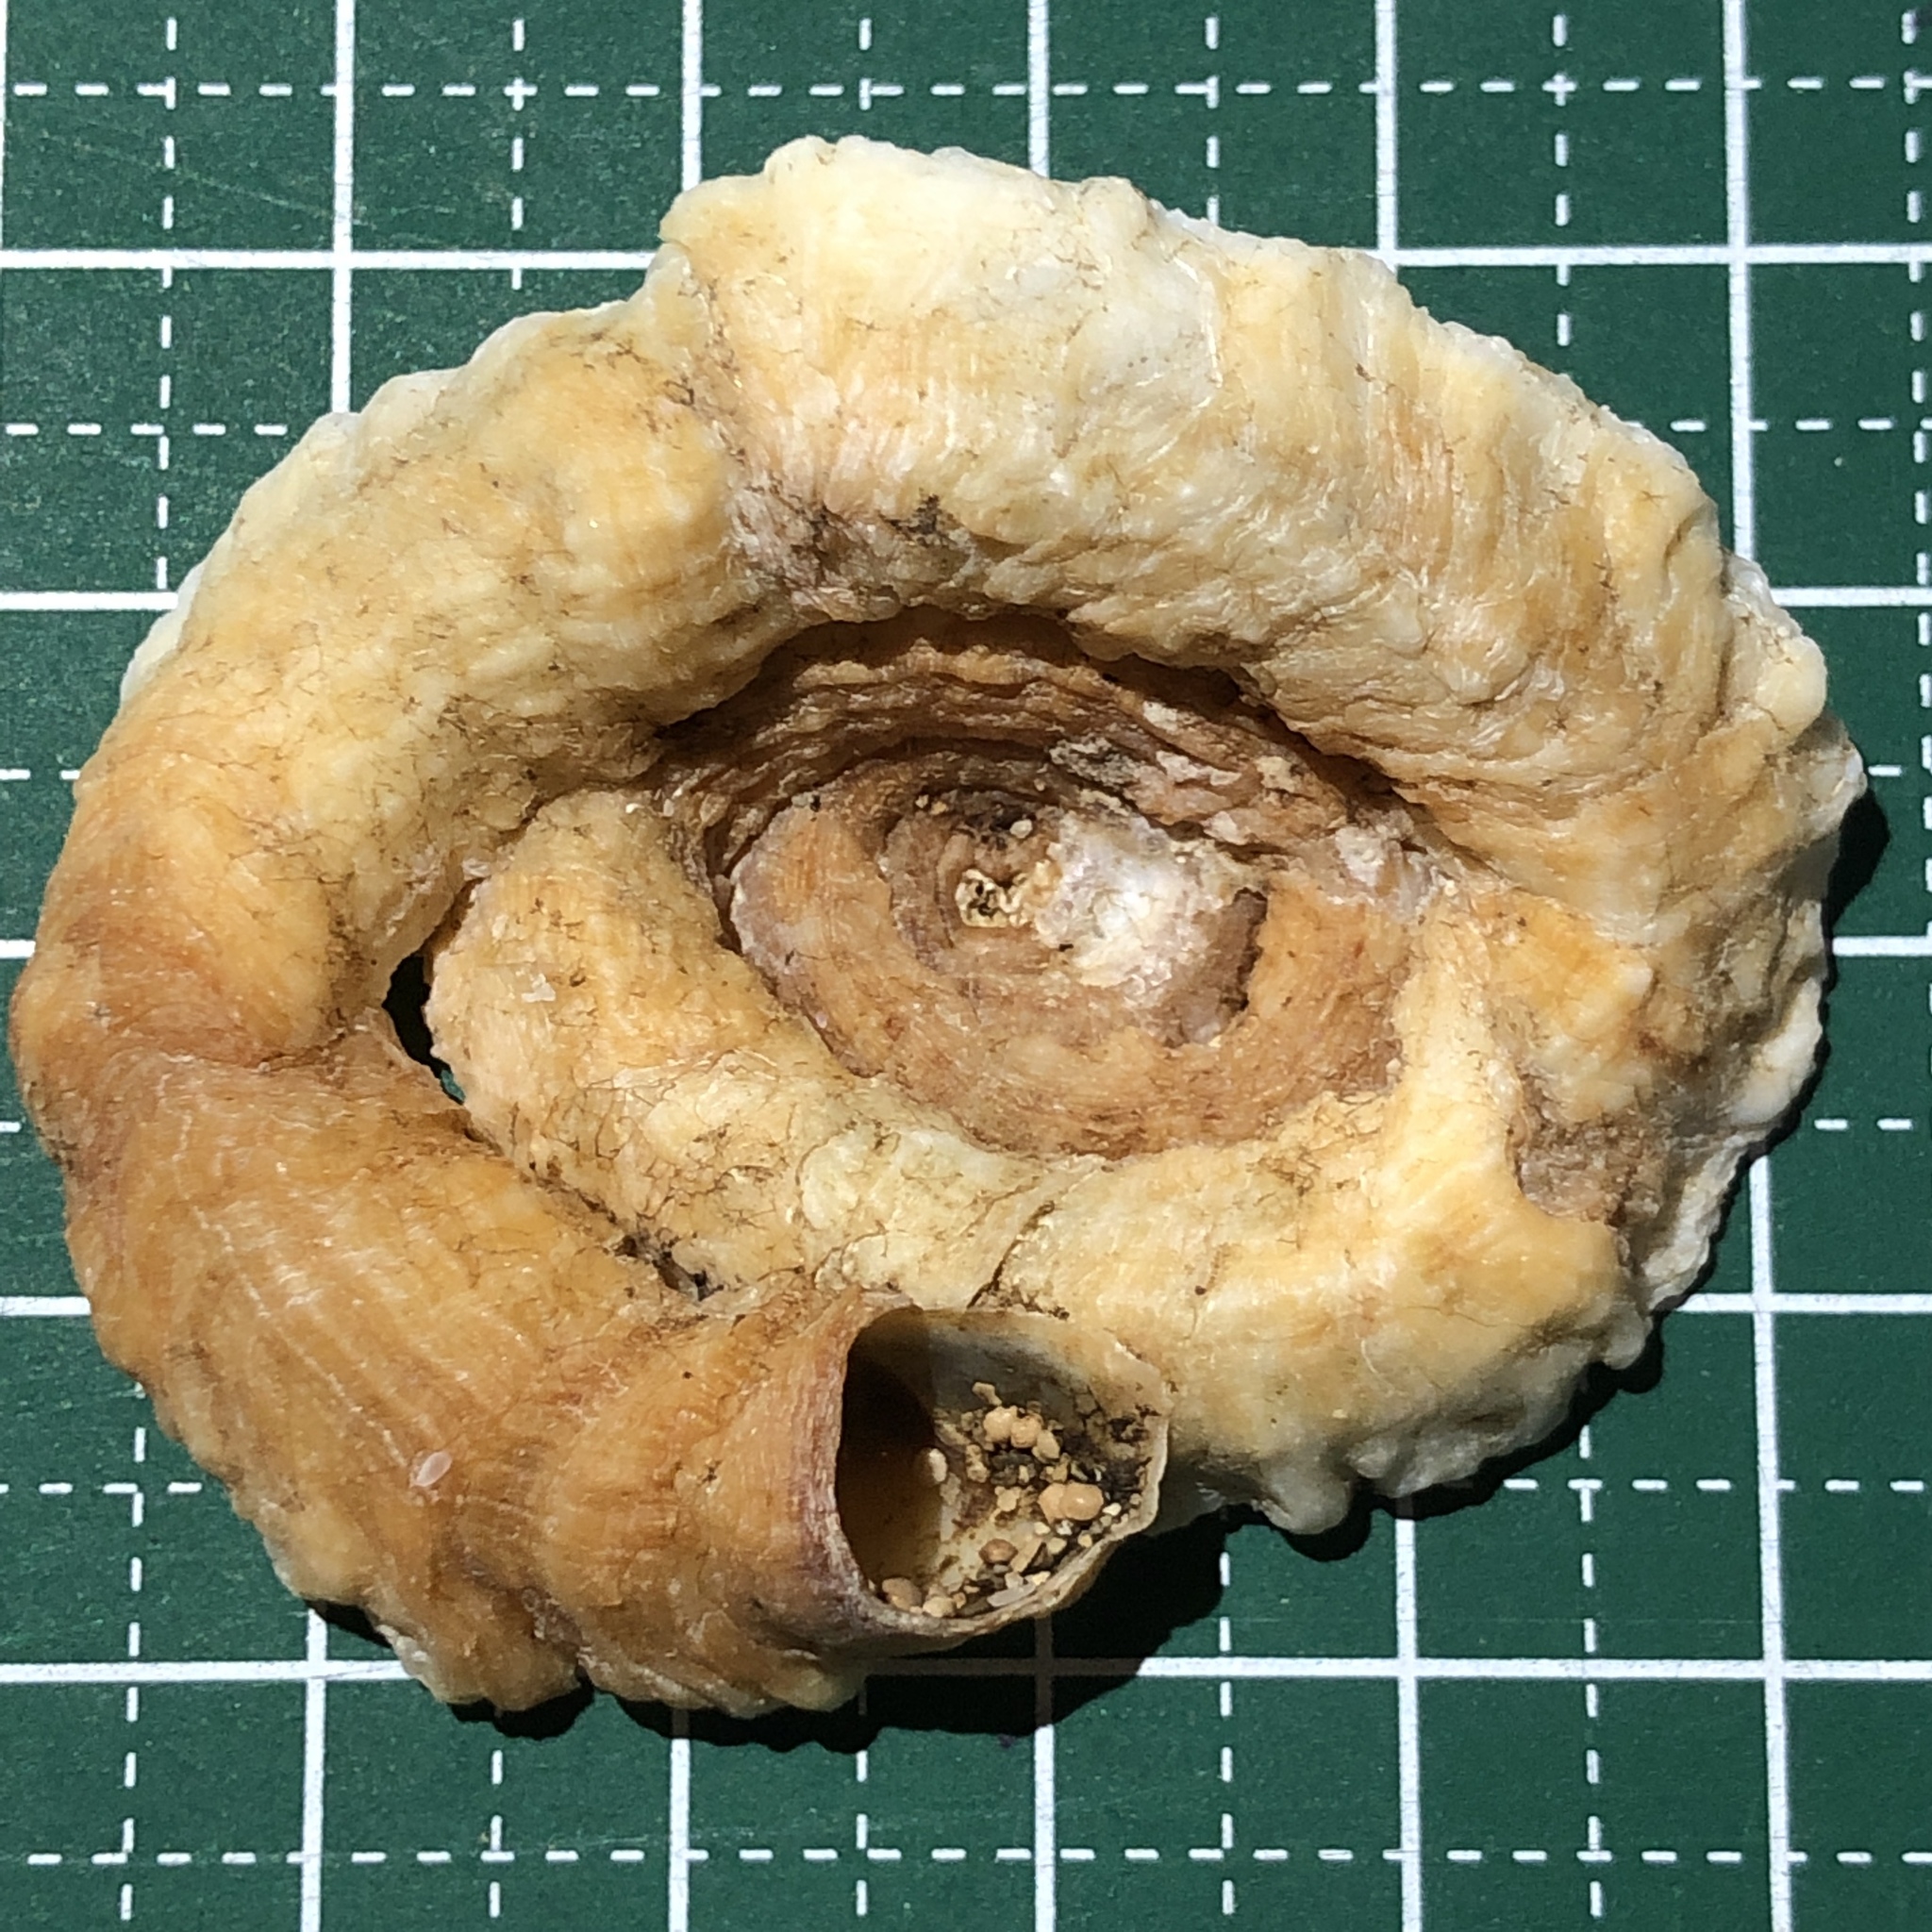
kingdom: Animalia
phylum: Mollusca
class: Gastropoda
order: Littorinimorpha
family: Vermetidae
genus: Thylacodes
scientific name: Thylacodes trimeresurus
